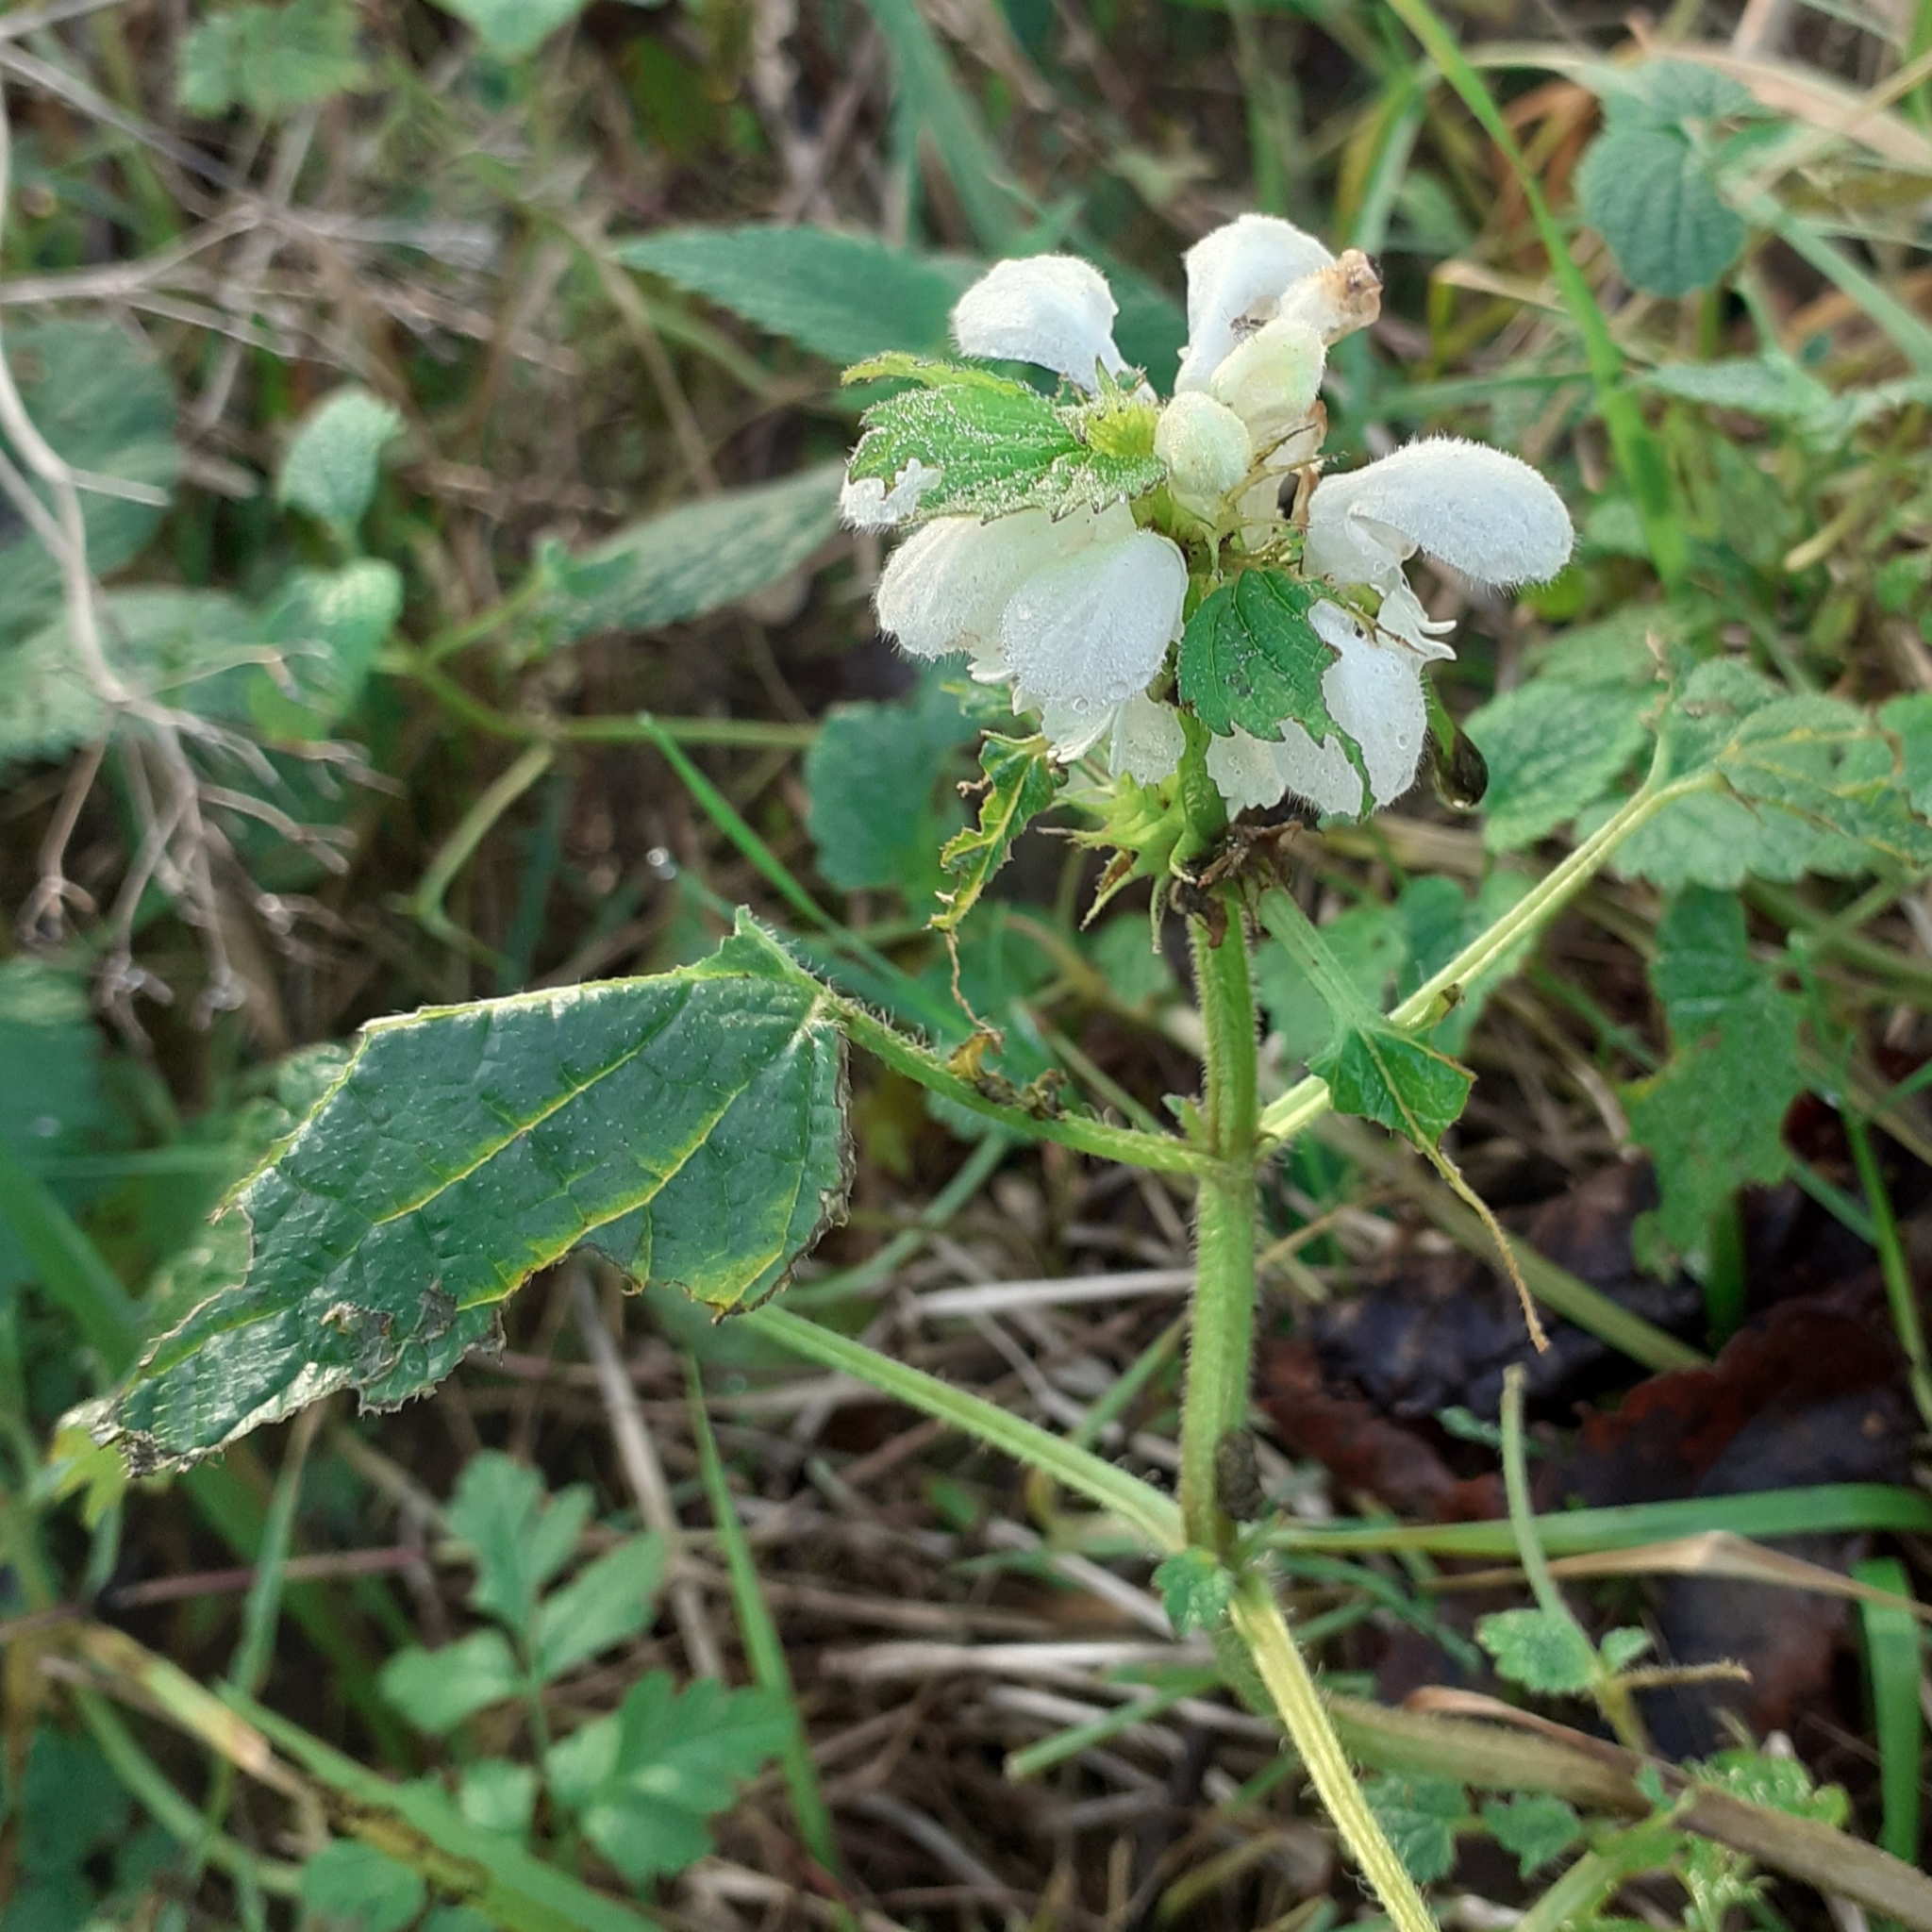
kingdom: Plantae
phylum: Tracheophyta
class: Magnoliopsida
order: Lamiales
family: Lamiaceae
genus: Lamium
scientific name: Lamium album
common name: White dead-nettle
